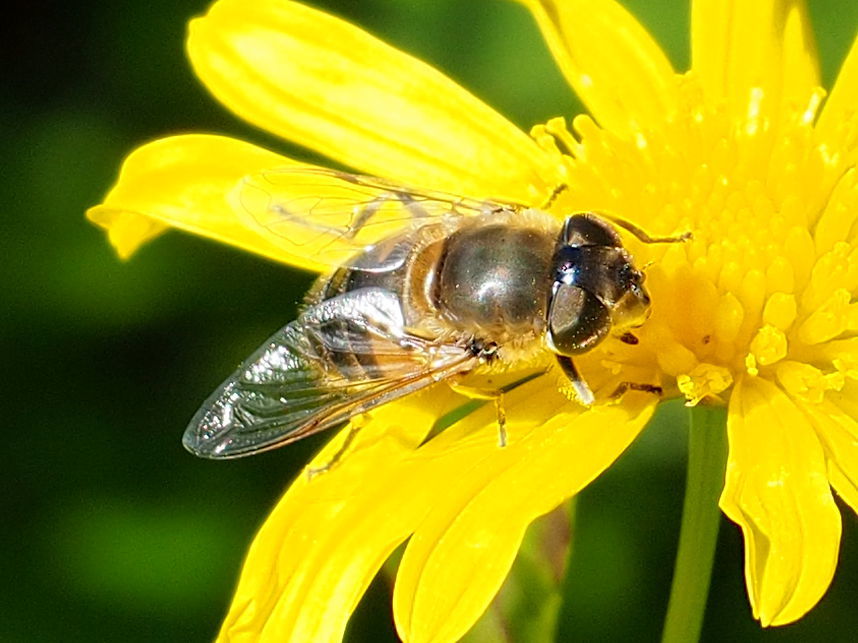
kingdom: Animalia
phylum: Arthropoda
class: Insecta
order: Diptera
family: Syrphidae
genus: Eristalis
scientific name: Eristalis pertinax
